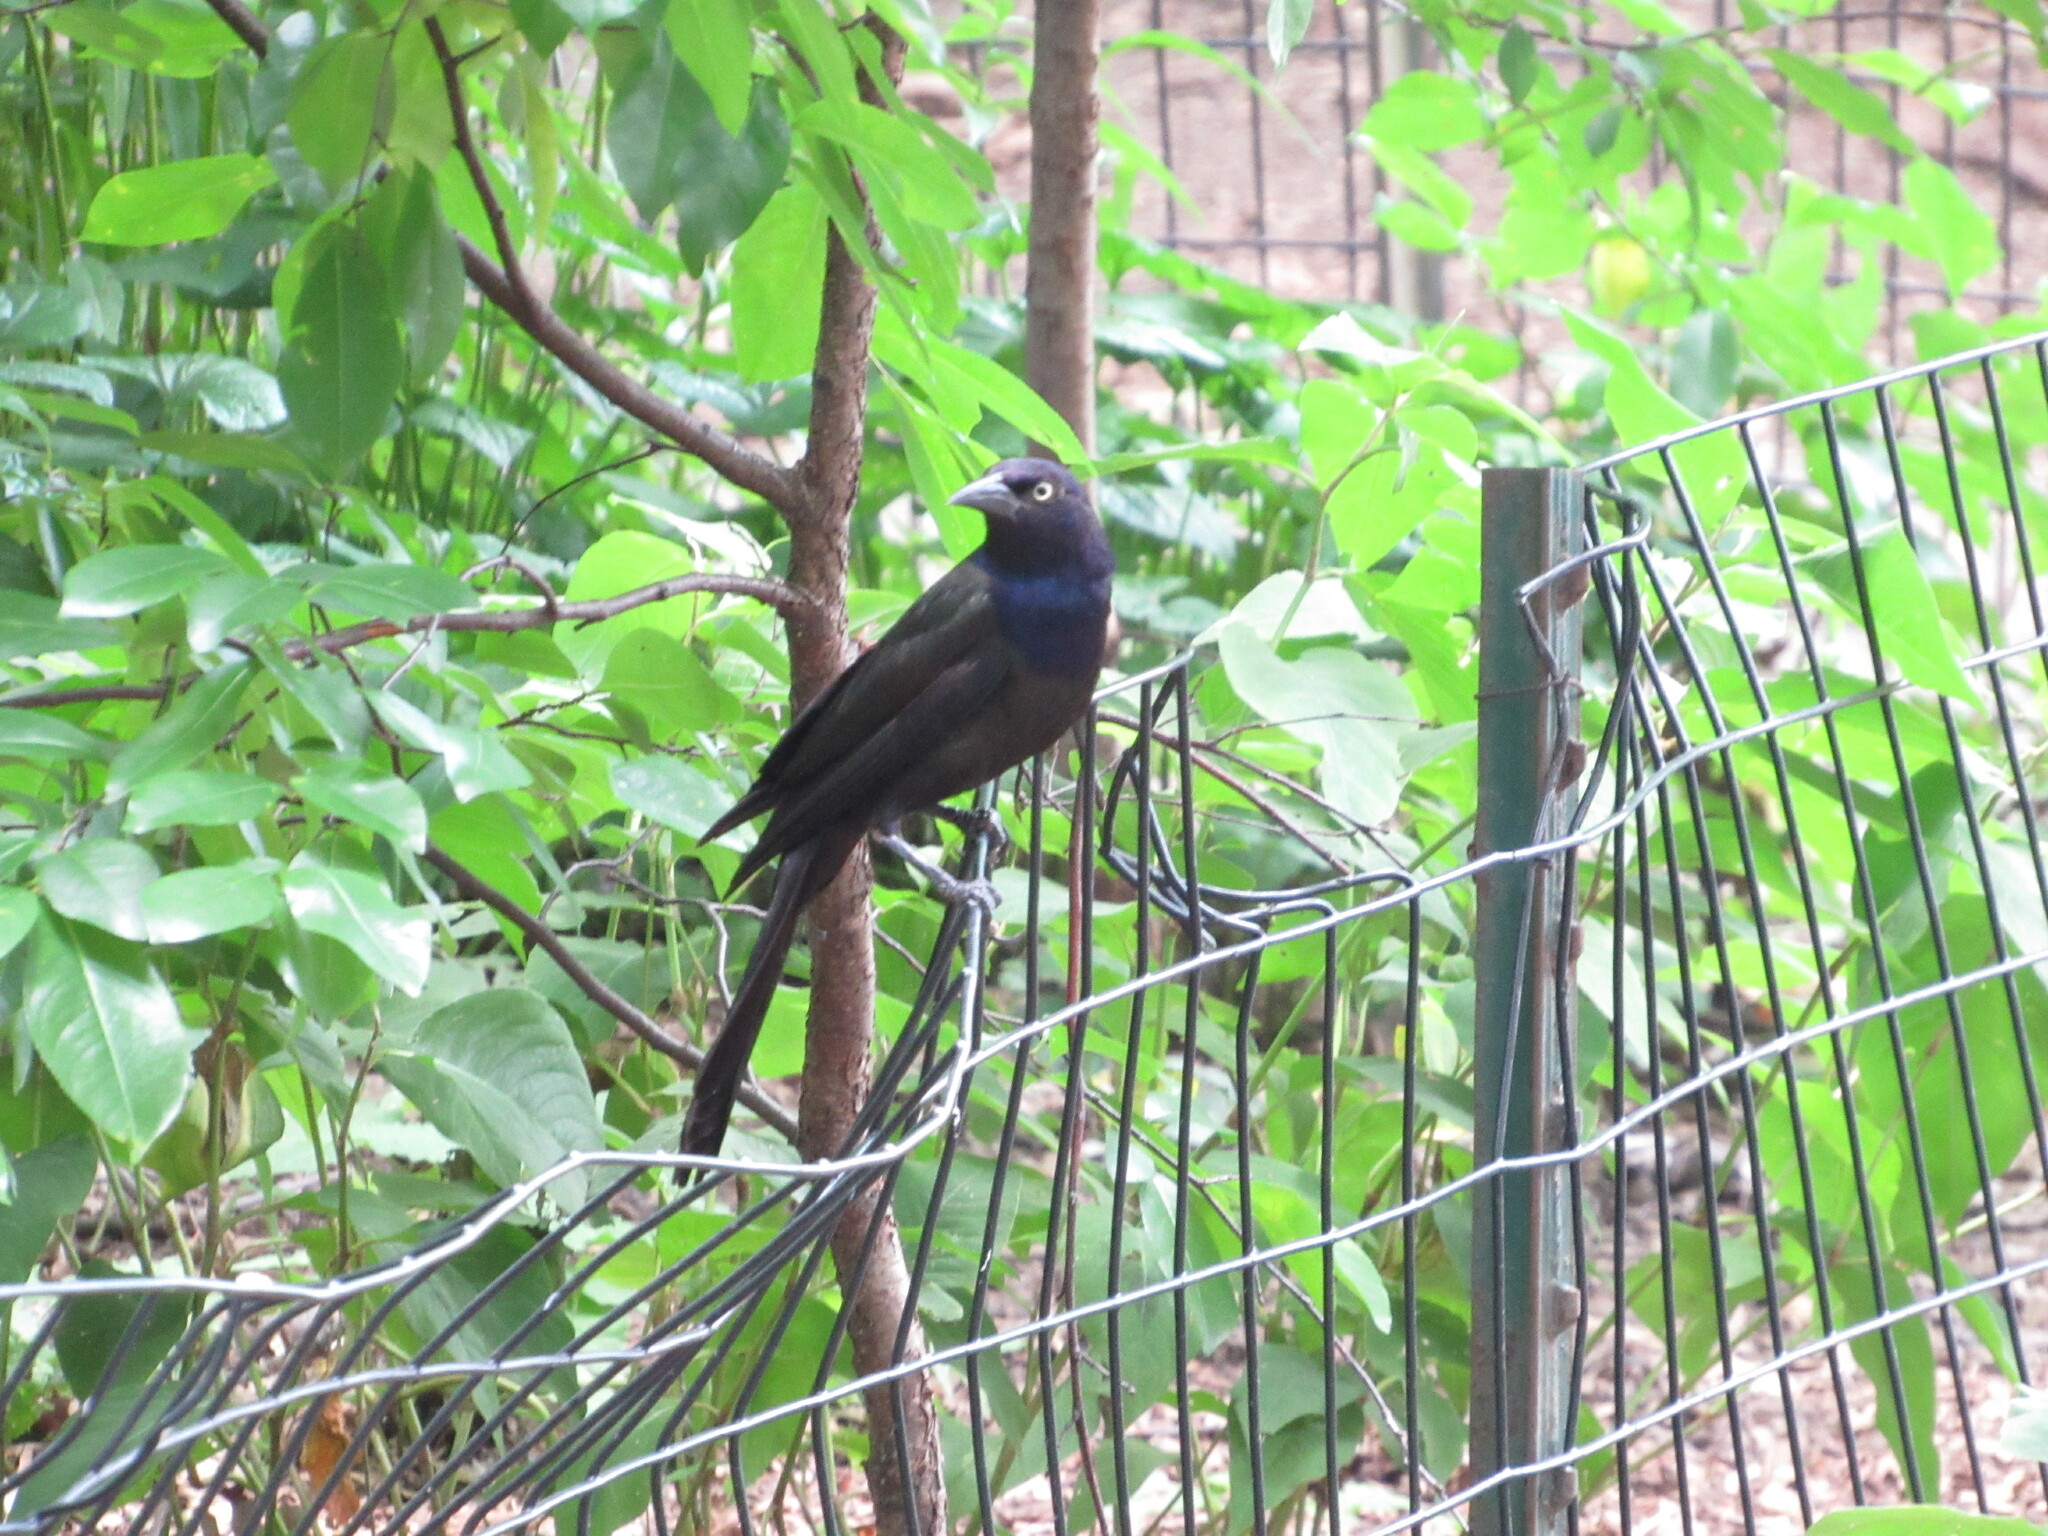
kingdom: Animalia
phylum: Chordata
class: Aves
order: Passeriformes
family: Icteridae
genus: Quiscalus
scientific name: Quiscalus quiscula
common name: Common grackle
